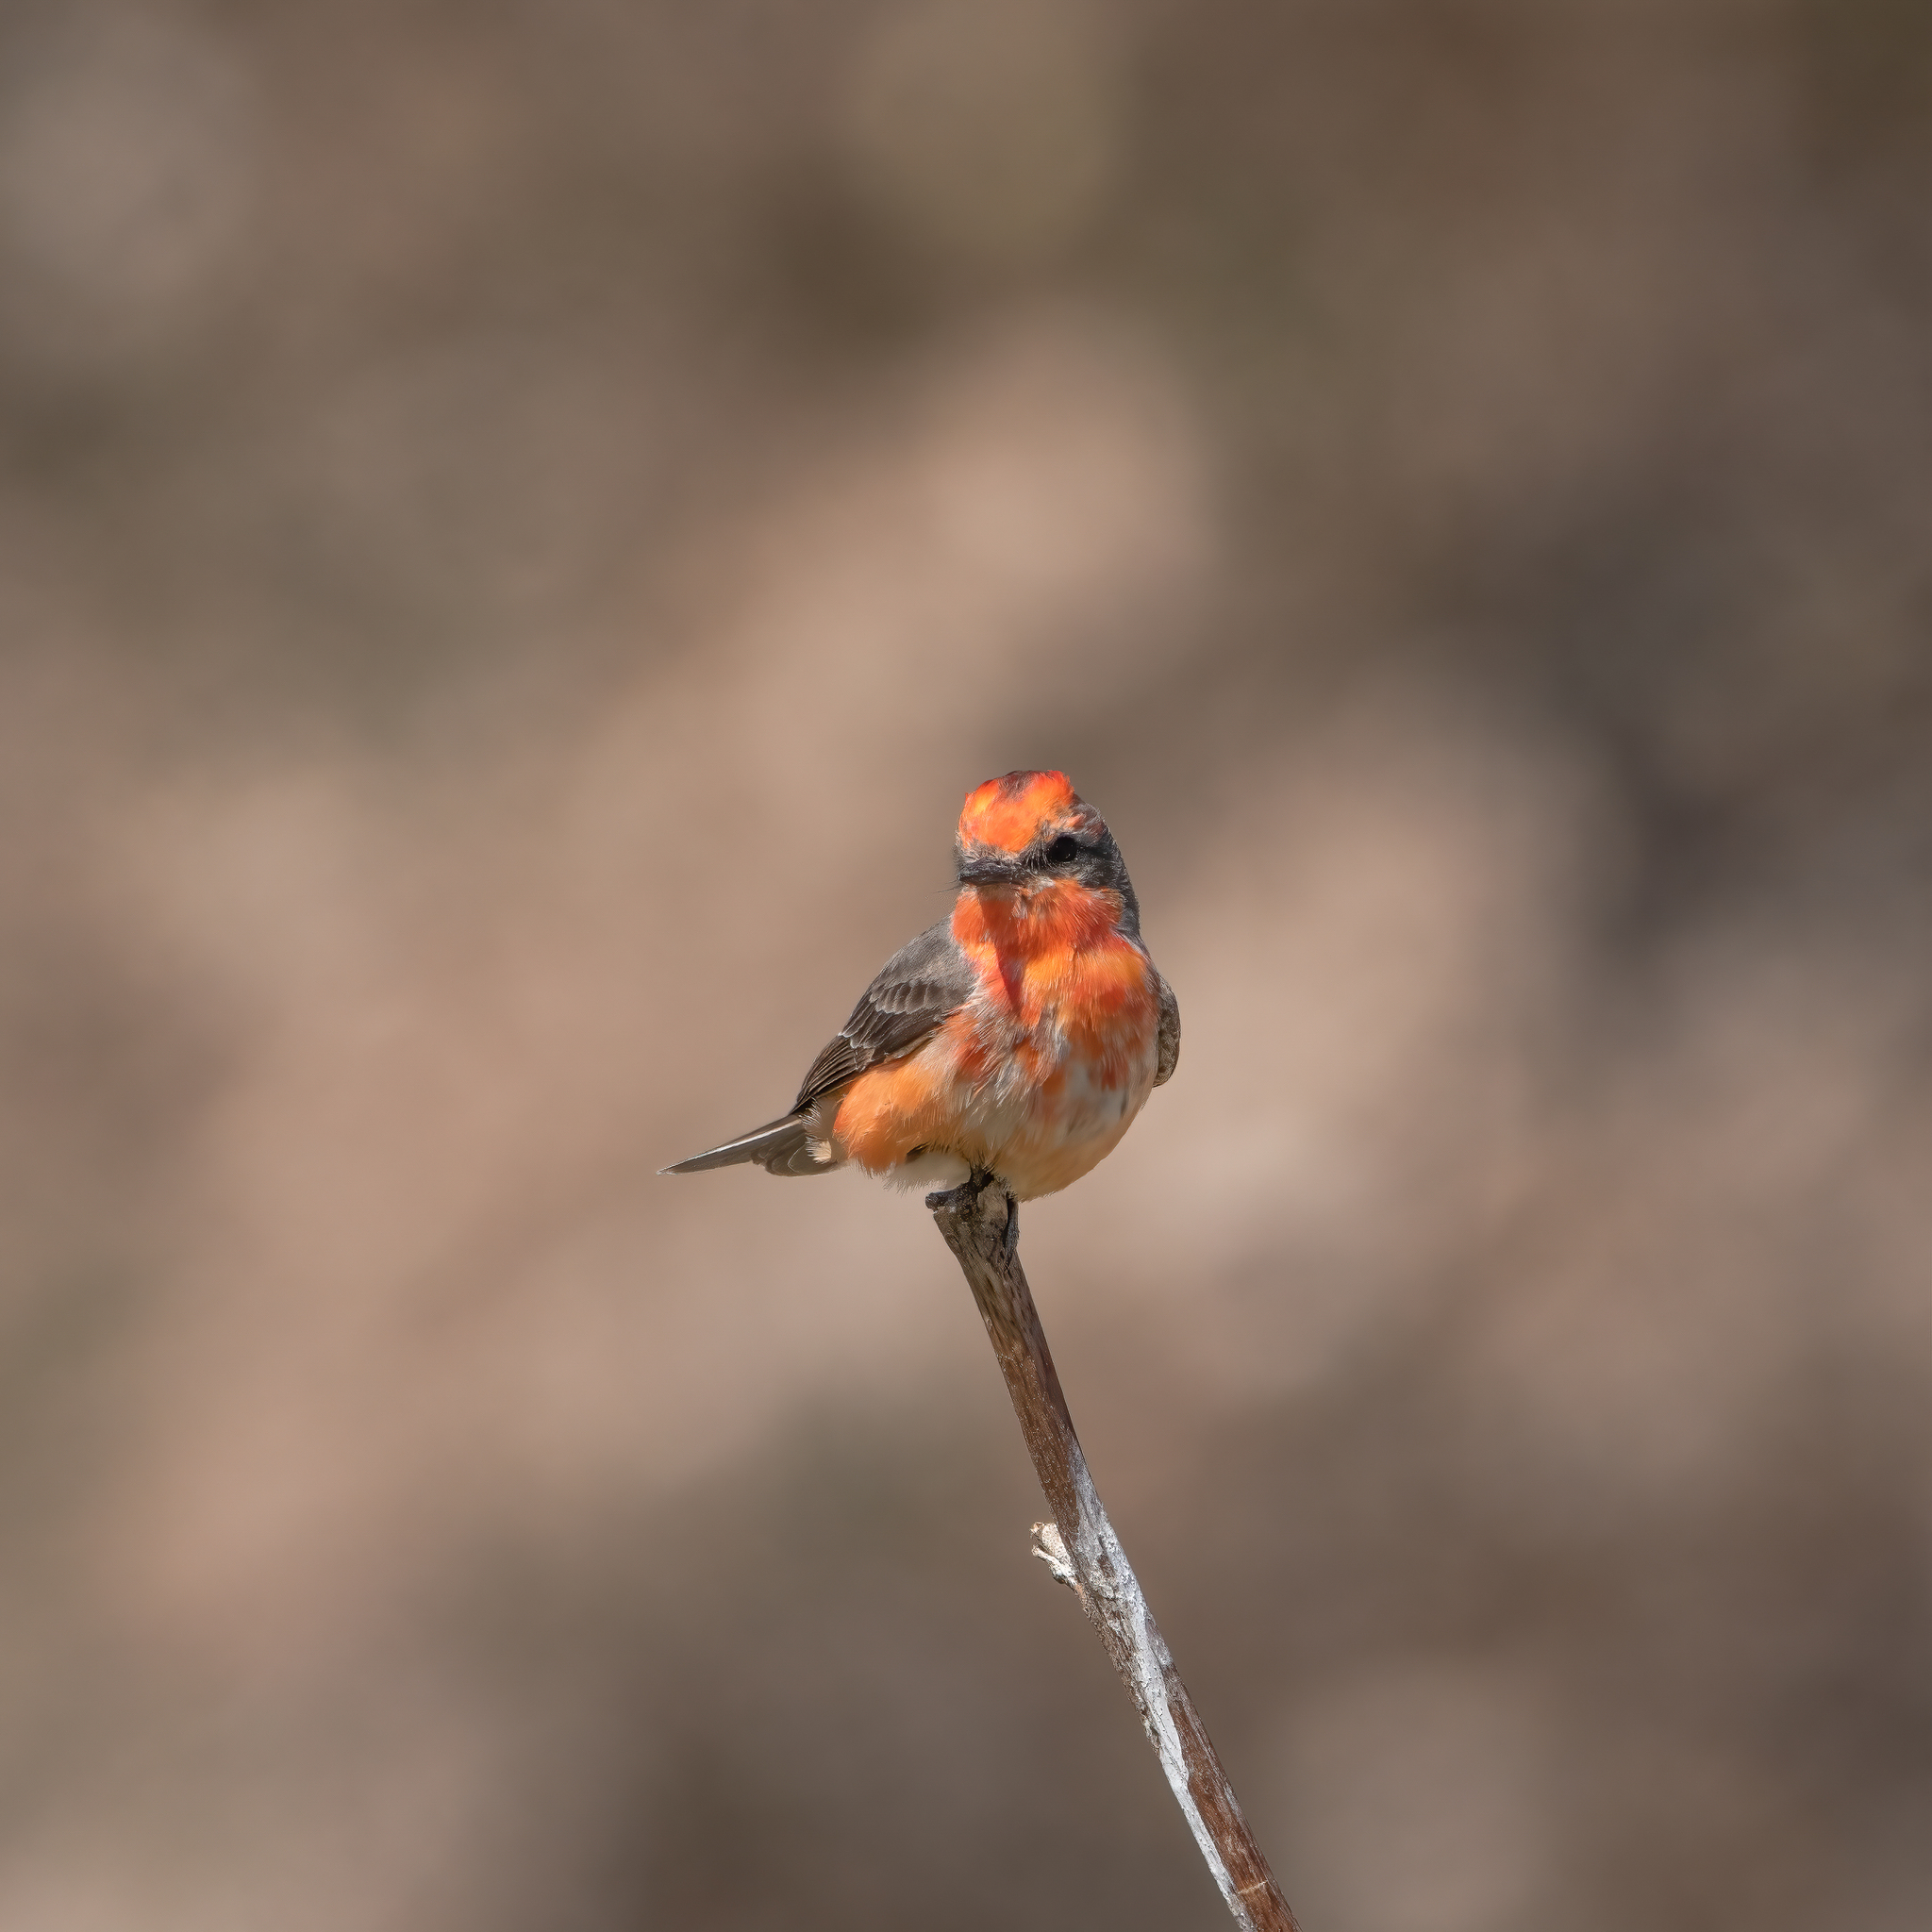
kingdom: Animalia
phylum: Chordata
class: Aves
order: Passeriformes
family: Tyrannidae
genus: Pyrocephalus
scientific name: Pyrocephalus rubinus
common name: Vermilion flycatcher
